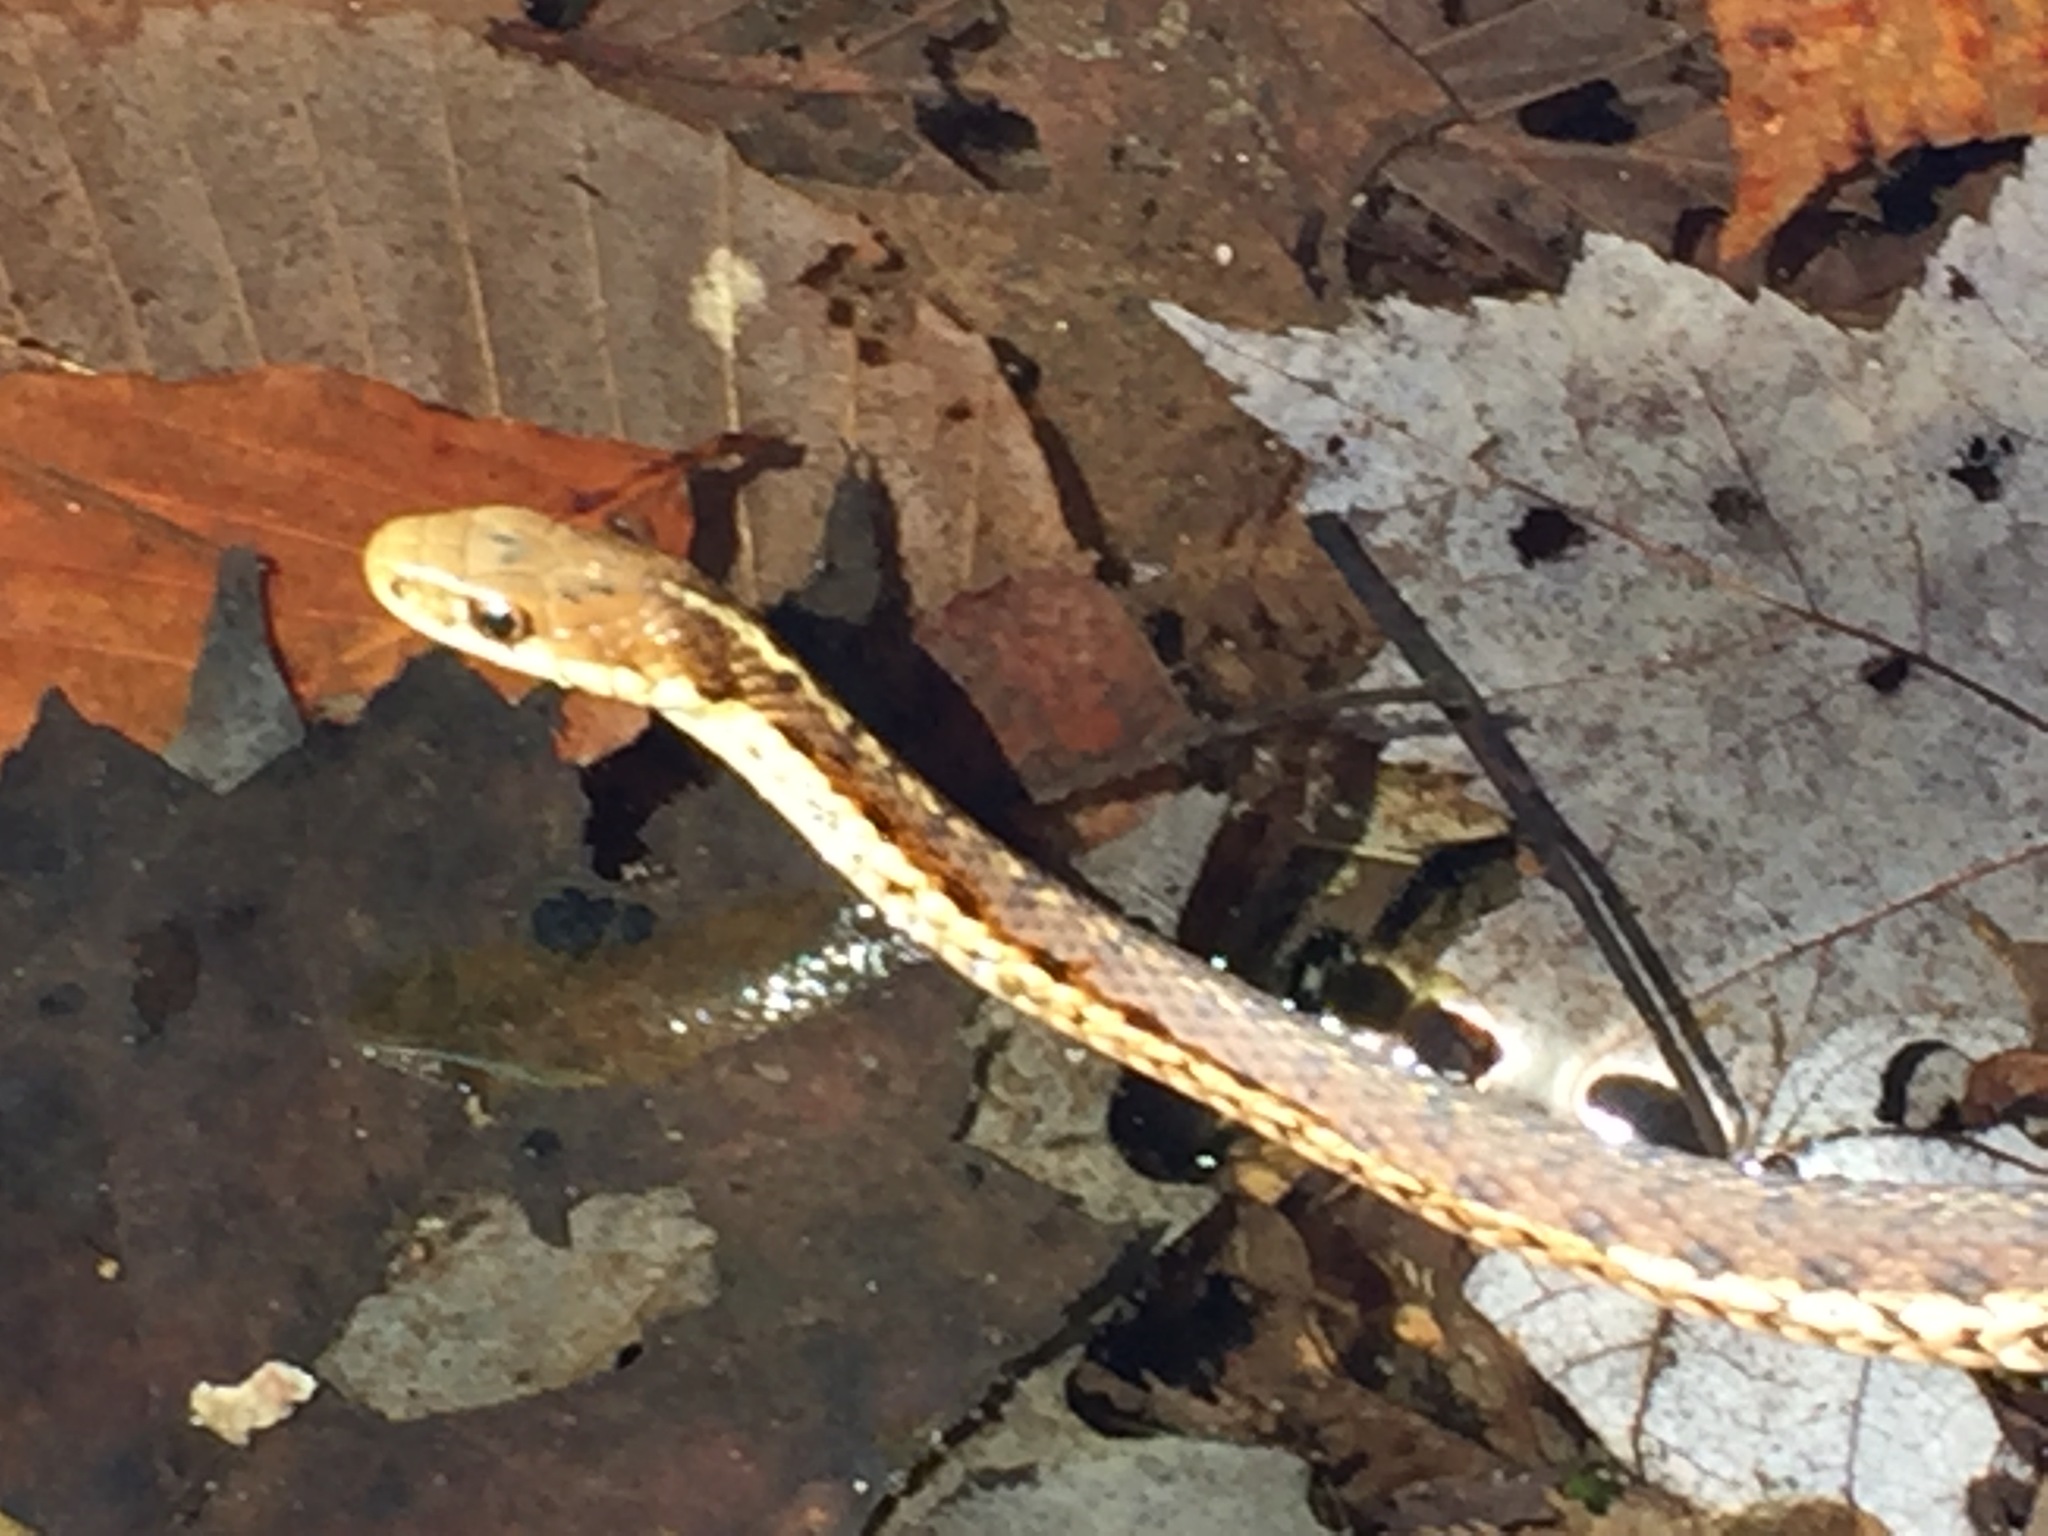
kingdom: Animalia
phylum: Chordata
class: Squamata
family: Colubridae
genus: Thamnophis
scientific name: Thamnophis sirtalis
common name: Common garter snake
